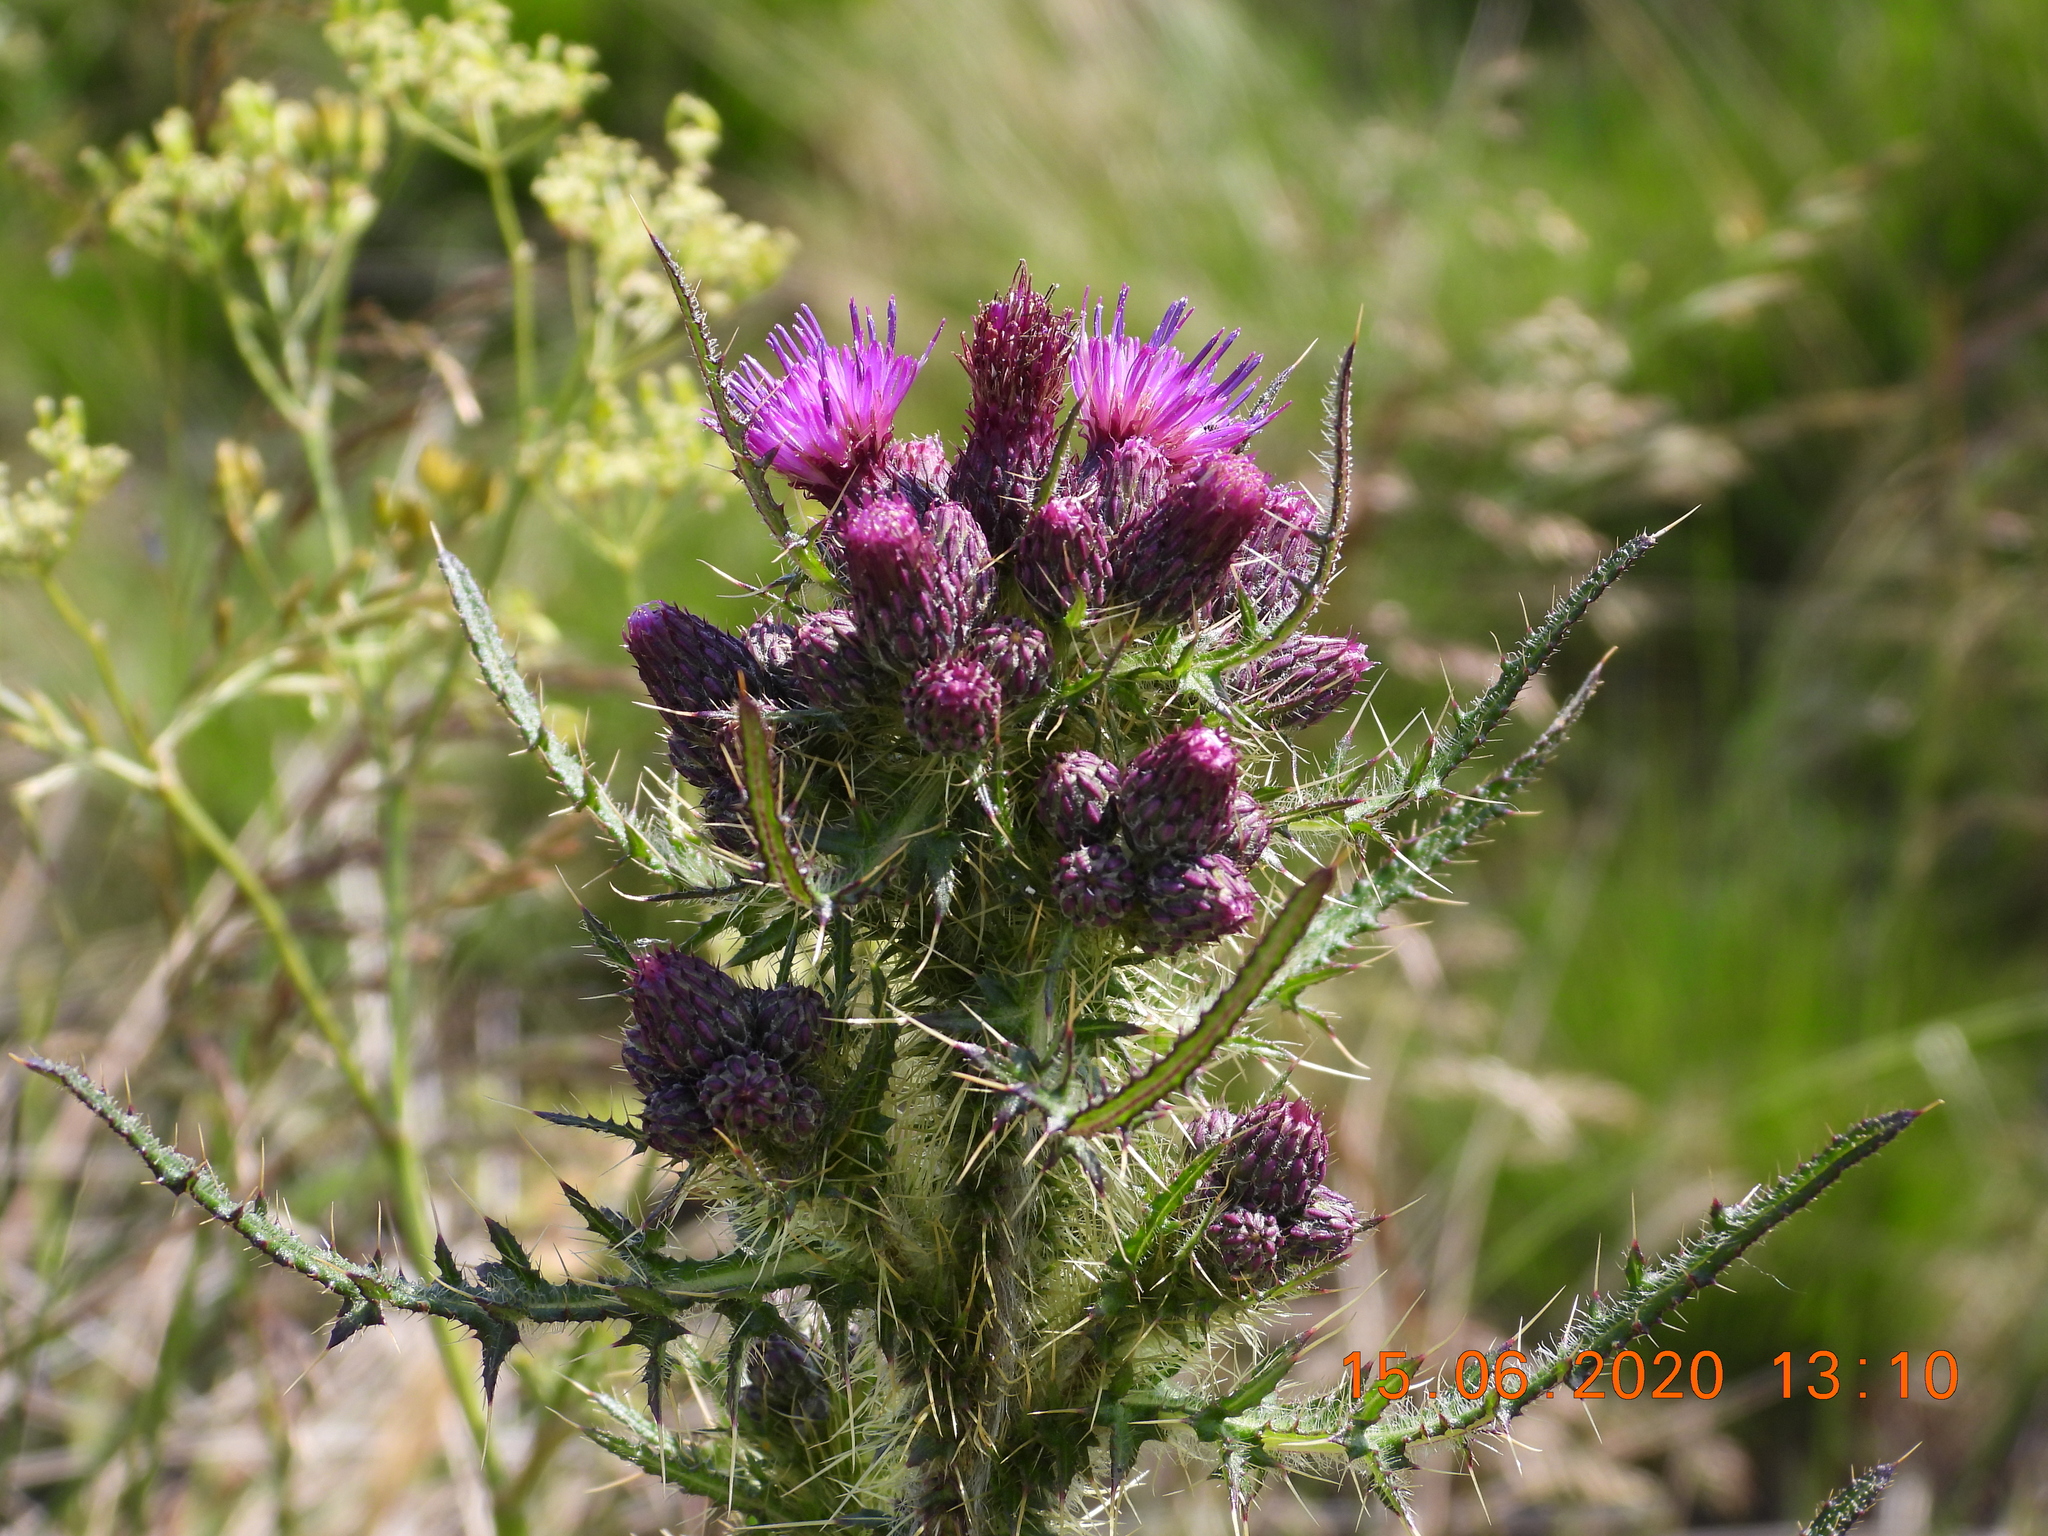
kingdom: Plantae
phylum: Tracheophyta
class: Magnoliopsida
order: Asterales
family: Asteraceae
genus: Cirsium
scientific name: Cirsium palustre
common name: Marsh thistle
